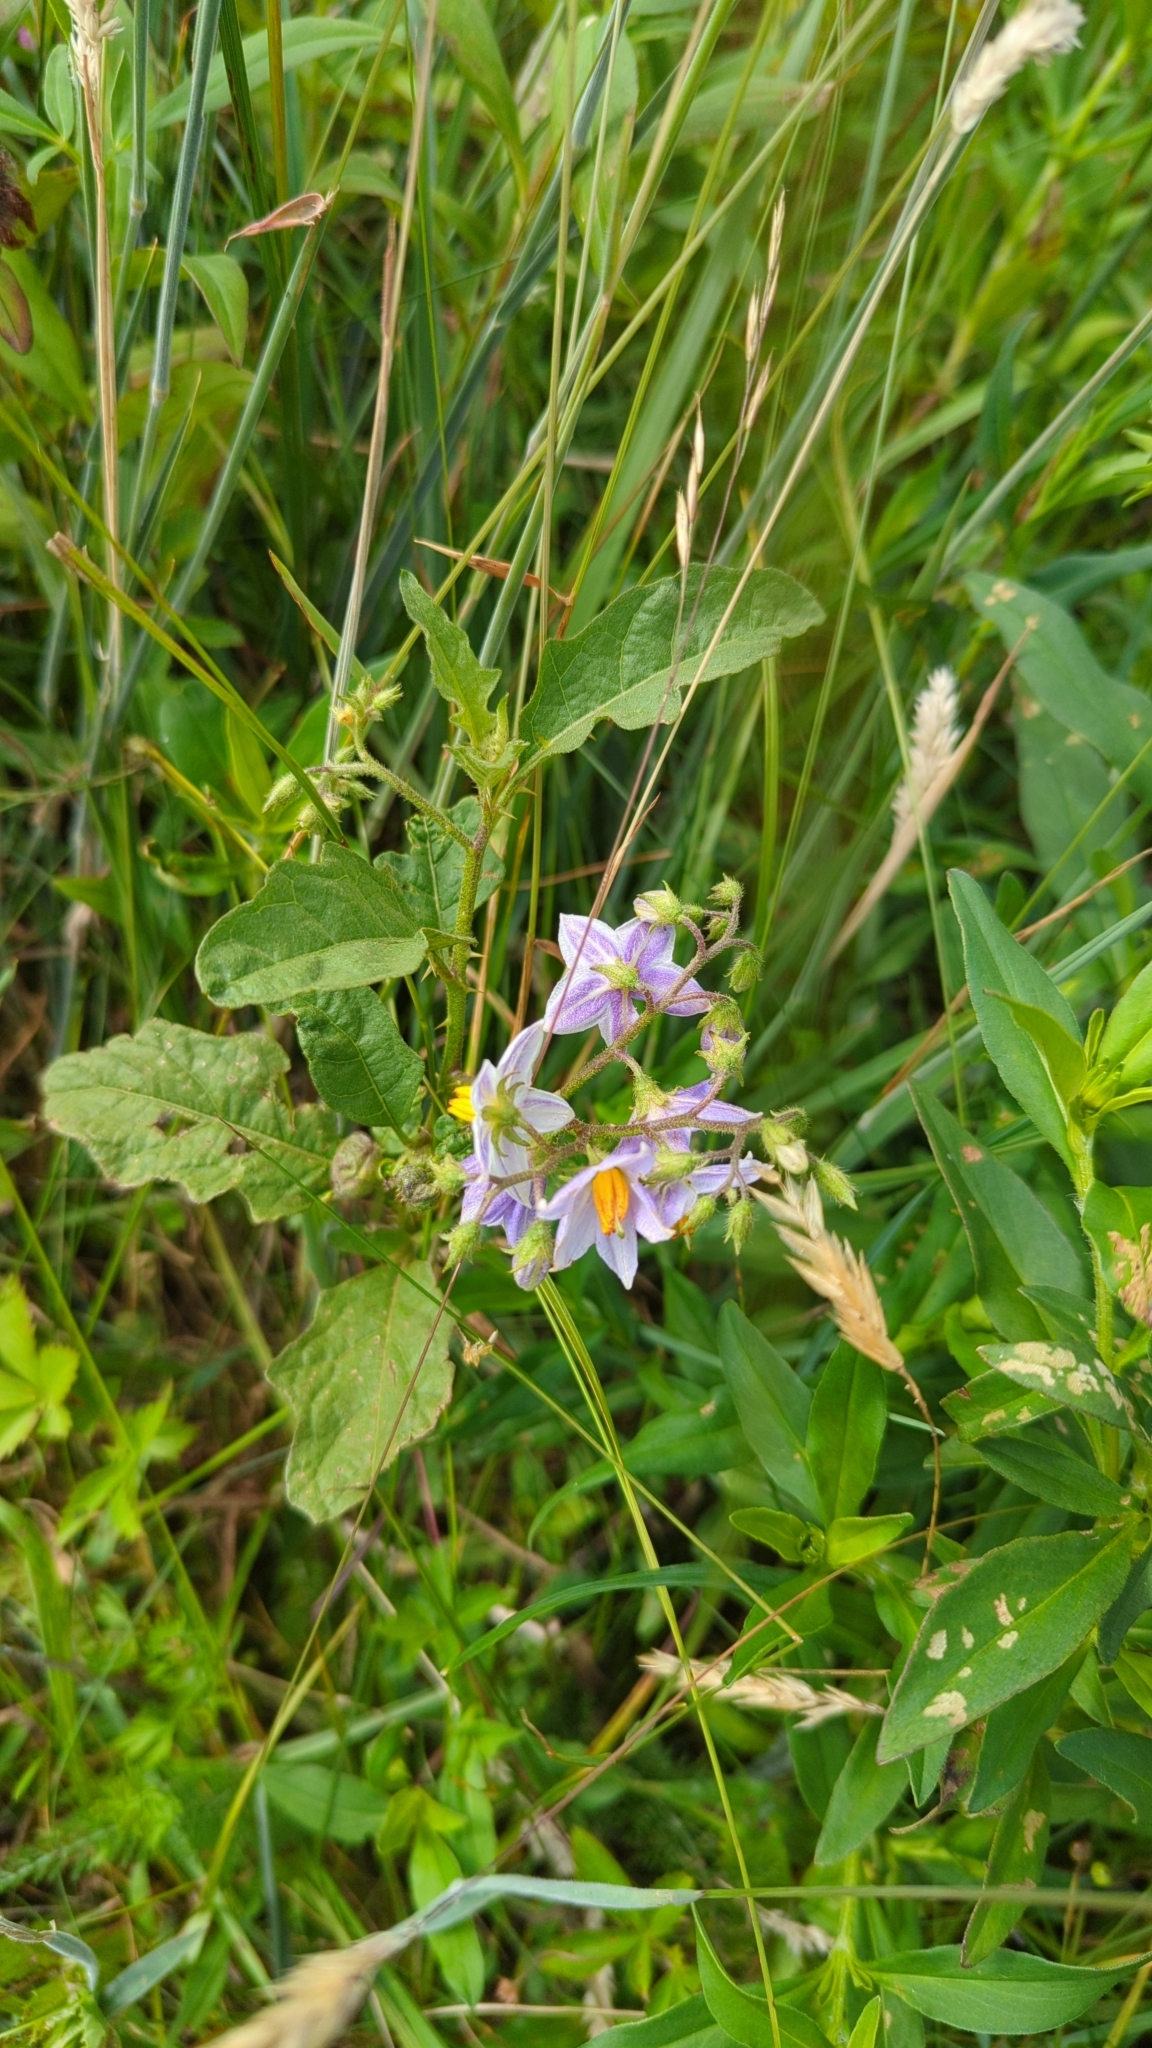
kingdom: Plantae
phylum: Tracheophyta
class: Magnoliopsida
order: Solanales
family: Solanaceae
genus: Solanum
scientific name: Solanum carolinense
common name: Horse-nettle
